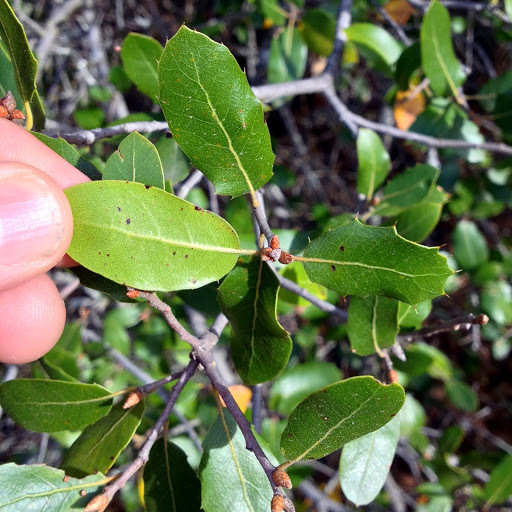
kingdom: Plantae
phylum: Tracheophyta
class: Magnoliopsida
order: Fagales
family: Fagaceae
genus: Quercus
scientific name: Quercus wislizeni
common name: Interior live oak
